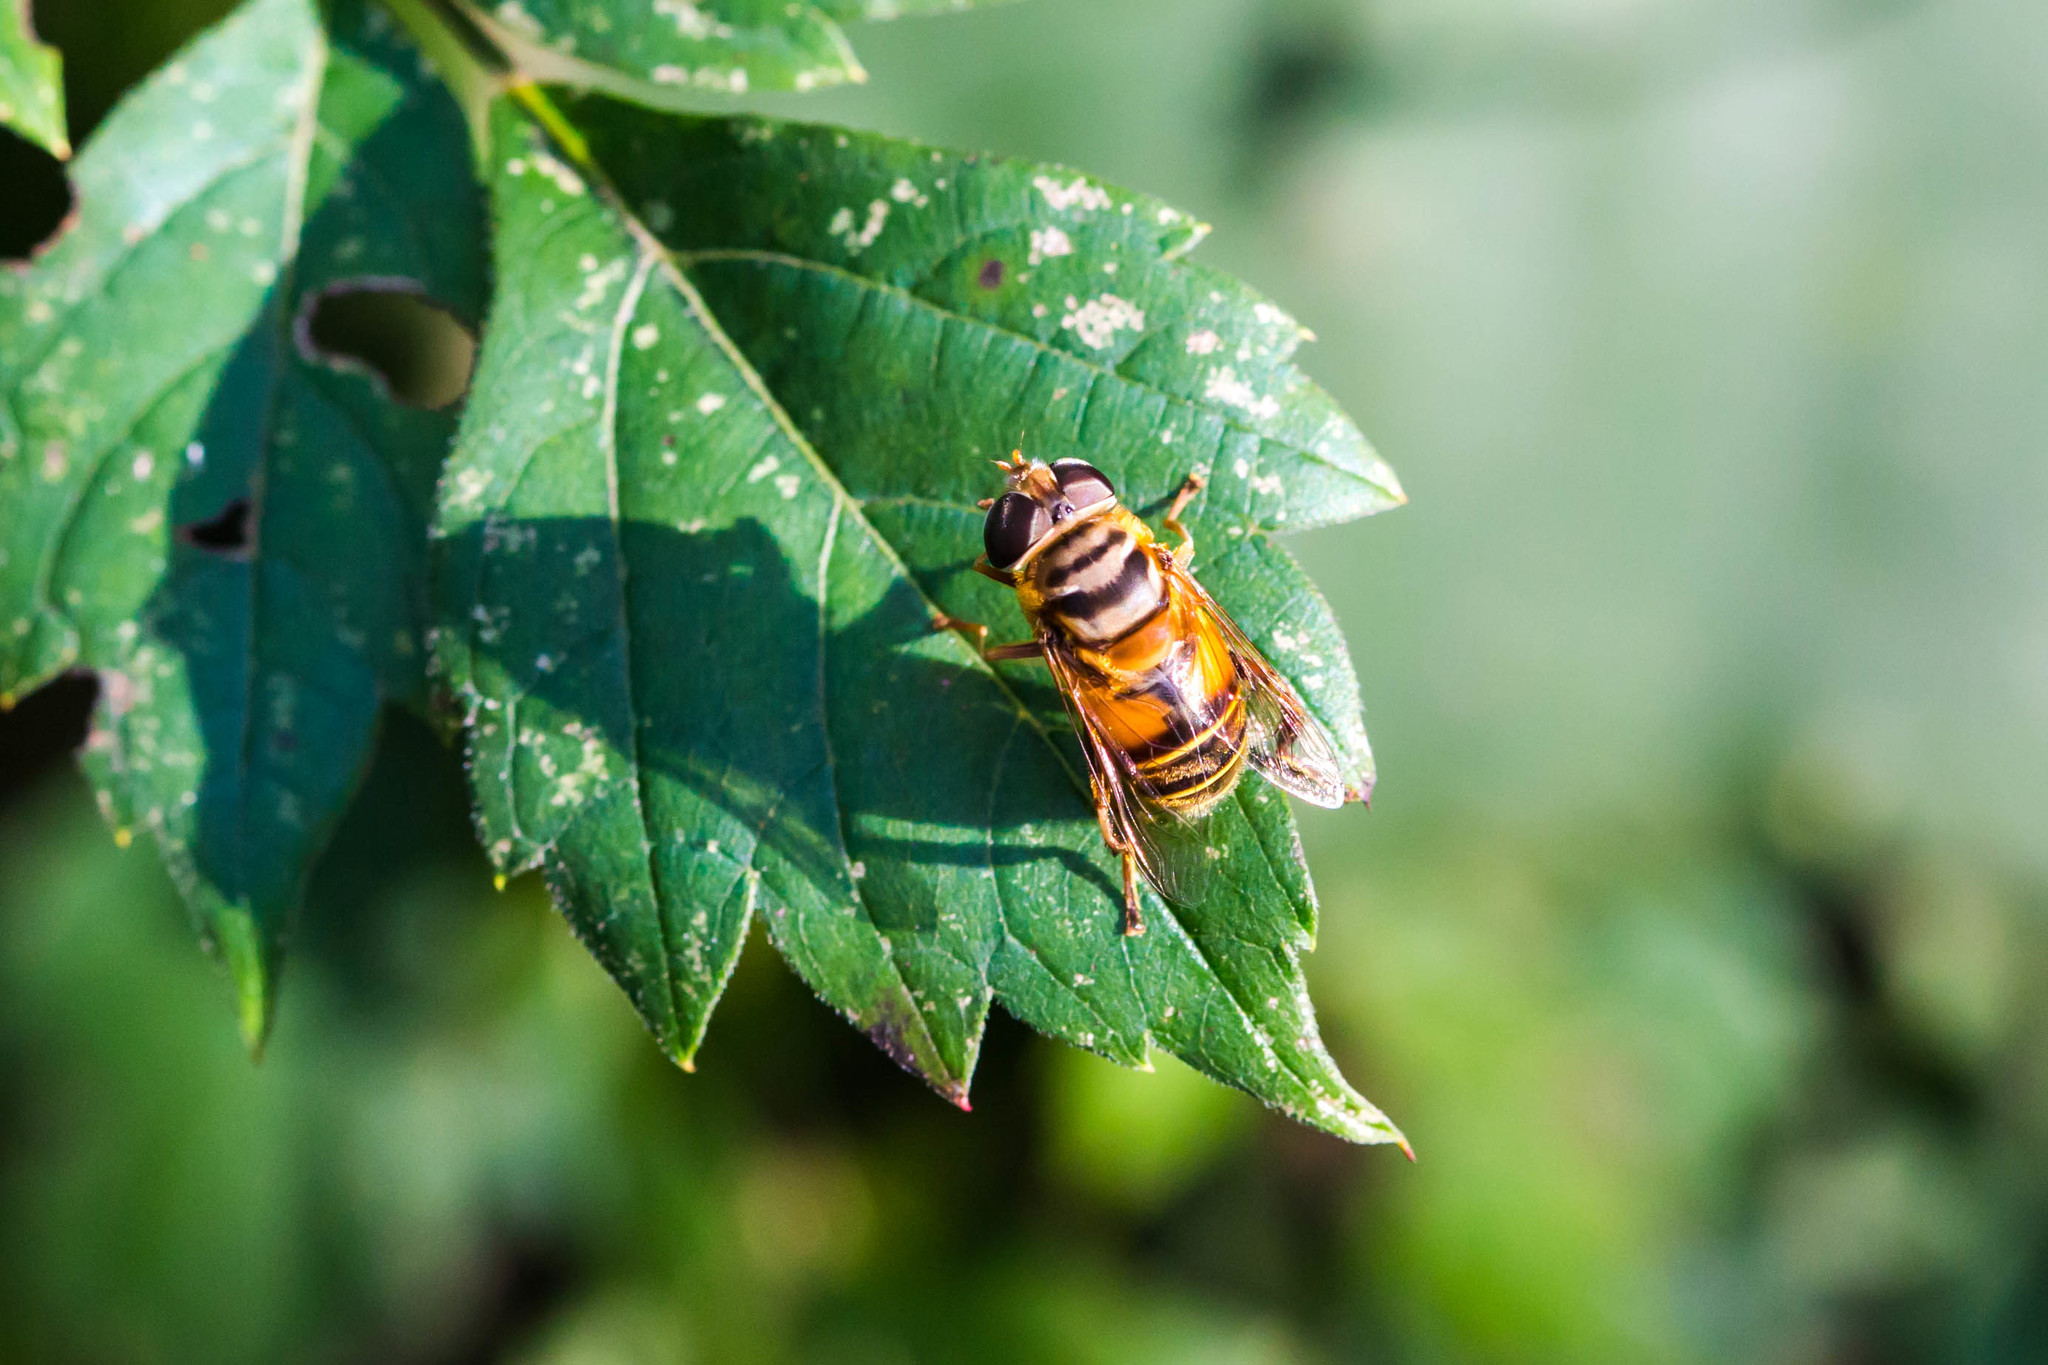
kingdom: Animalia
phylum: Arthropoda
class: Insecta
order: Diptera
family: Syrphidae
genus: Palpada
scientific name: Palpada vinetorum
